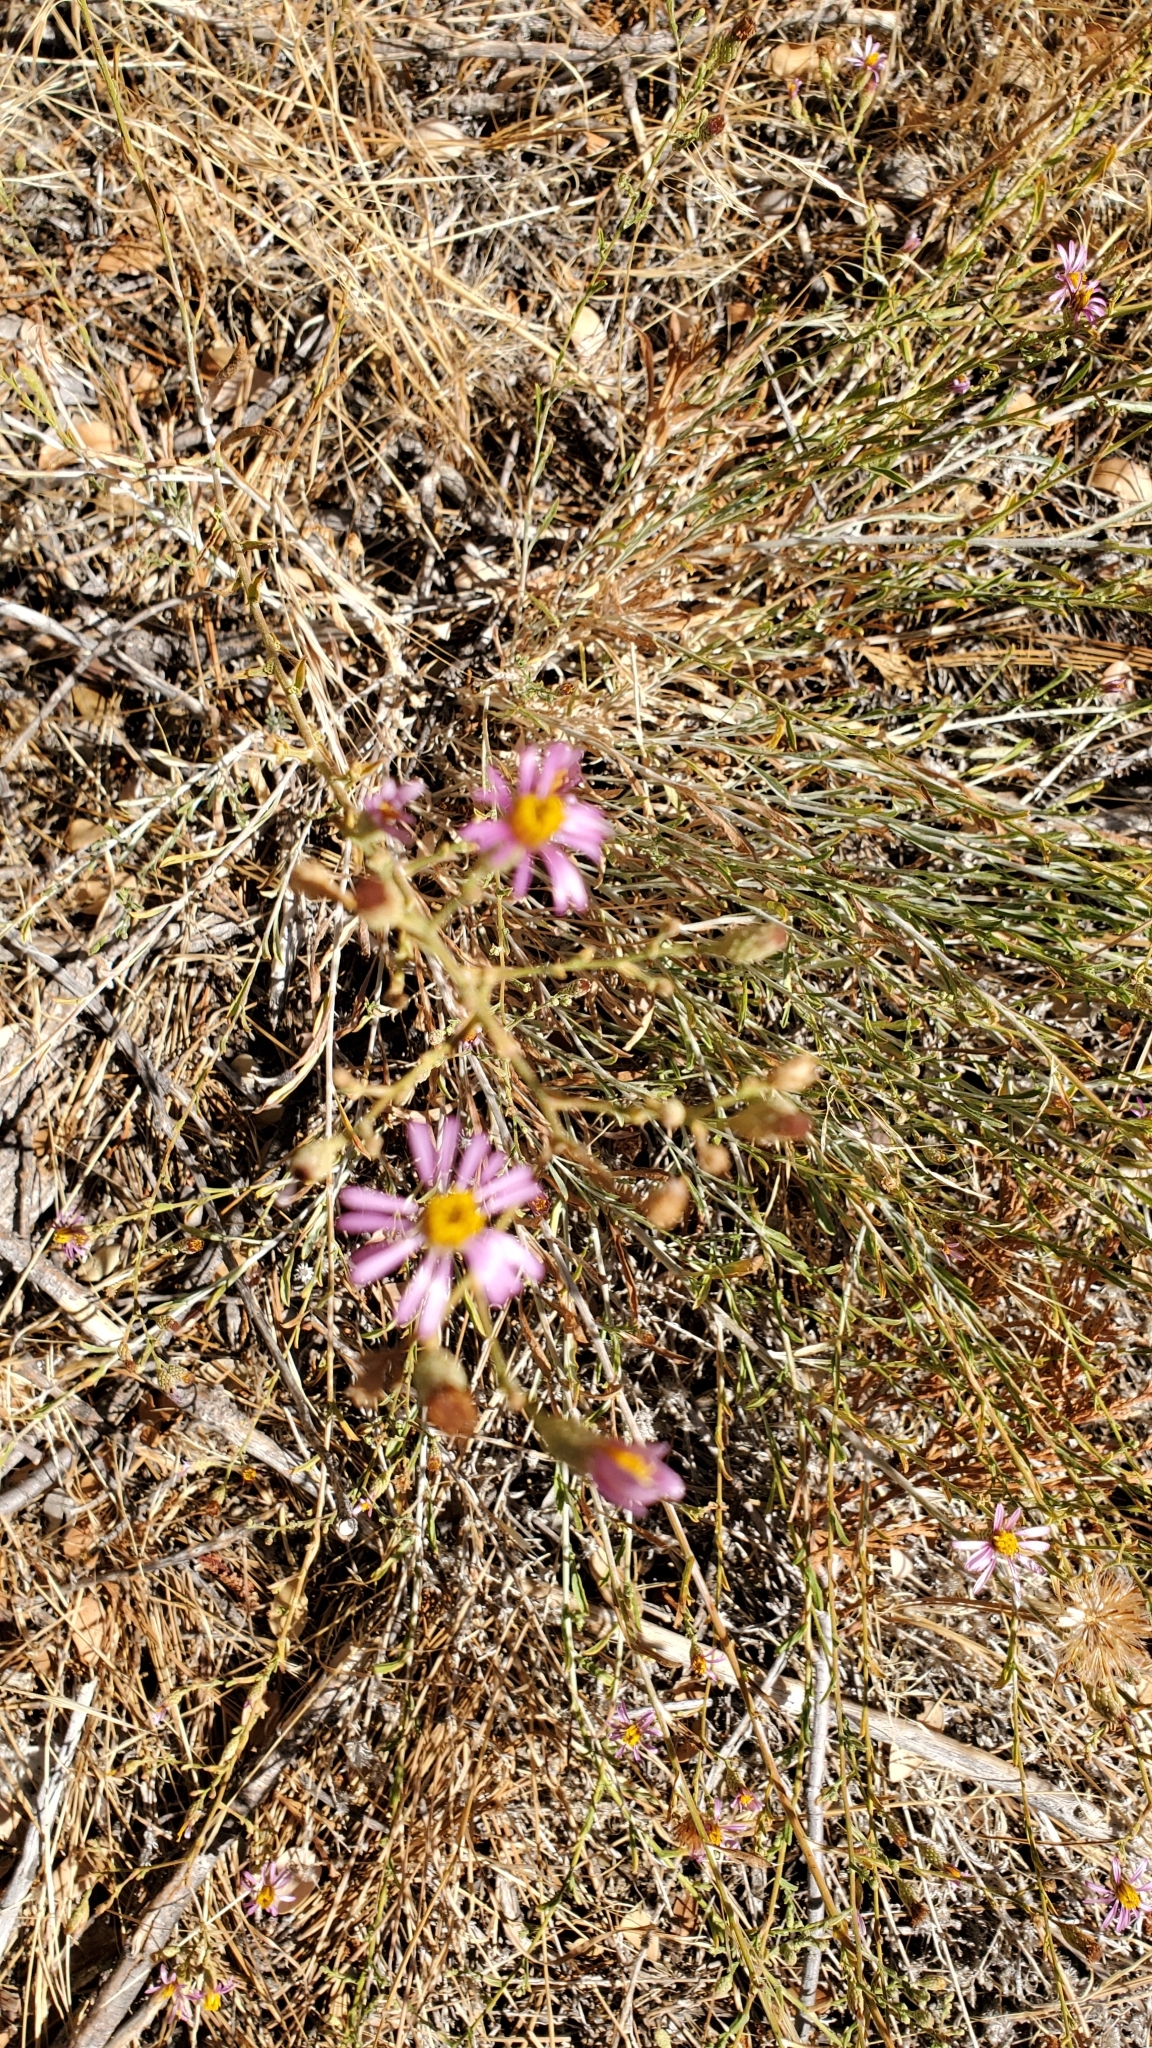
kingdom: Plantae
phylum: Tracheophyta
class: Magnoliopsida
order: Asterales
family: Asteraceae
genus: Corethrogyne
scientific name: Corethrogyne filaginifolia
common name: Sand-aster
